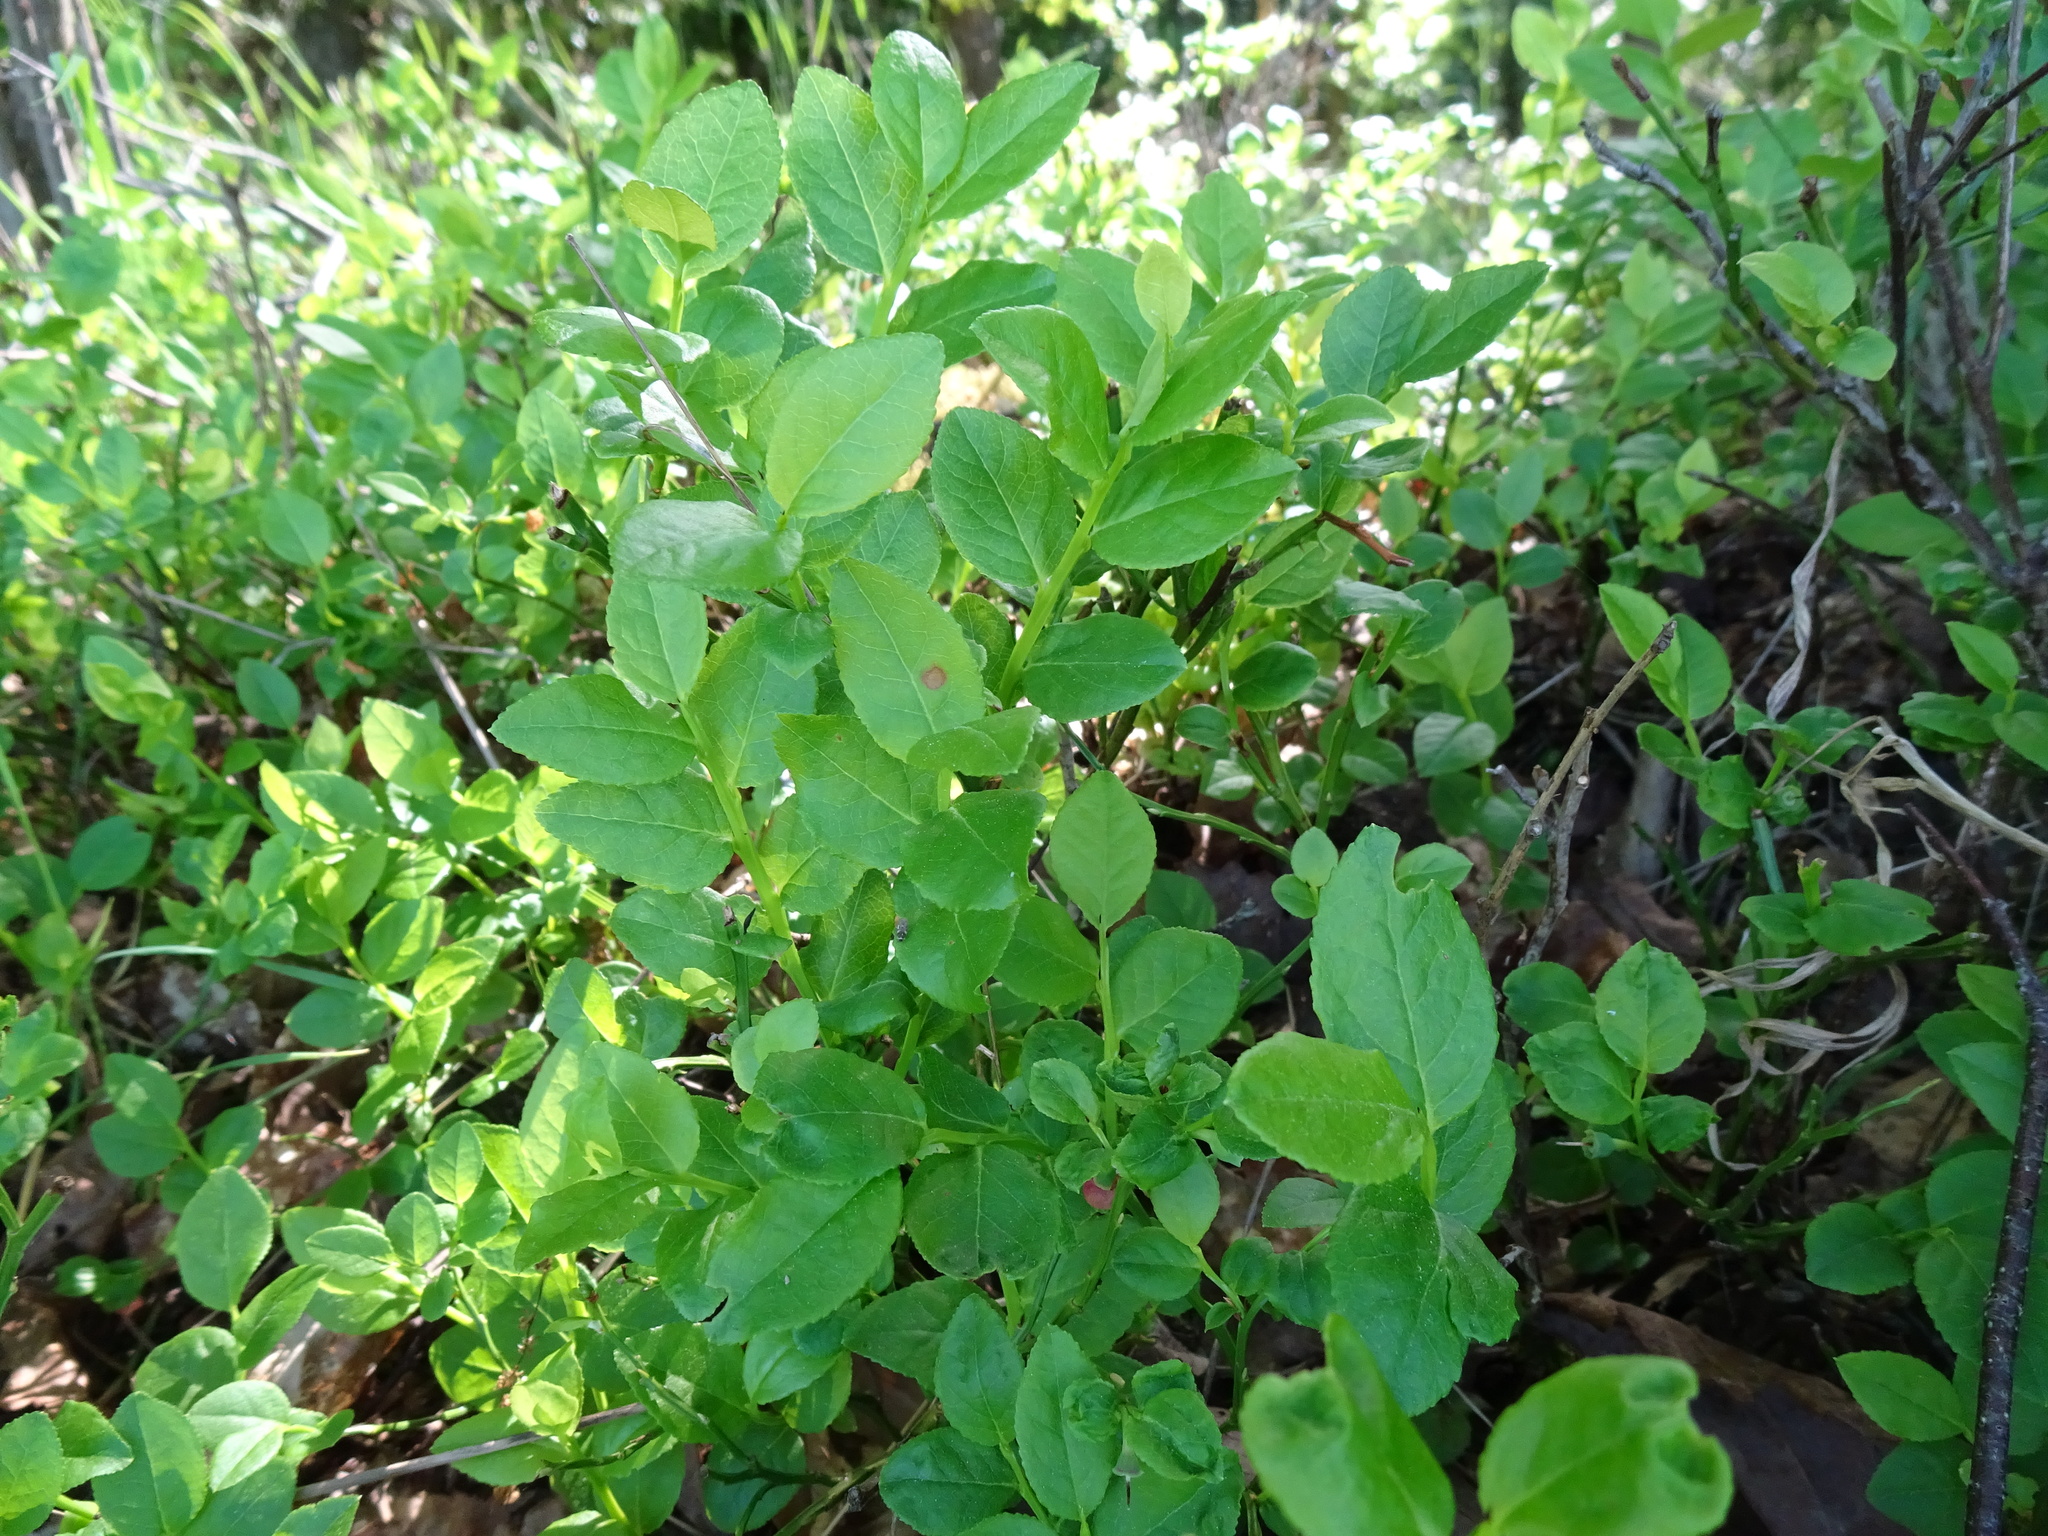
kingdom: Plantae
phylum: Tracheophyta
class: Magnoliopsida
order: Ericales
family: Ericaceae
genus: Vaccinium
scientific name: Vaccinium myrtillus
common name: Bilberry
